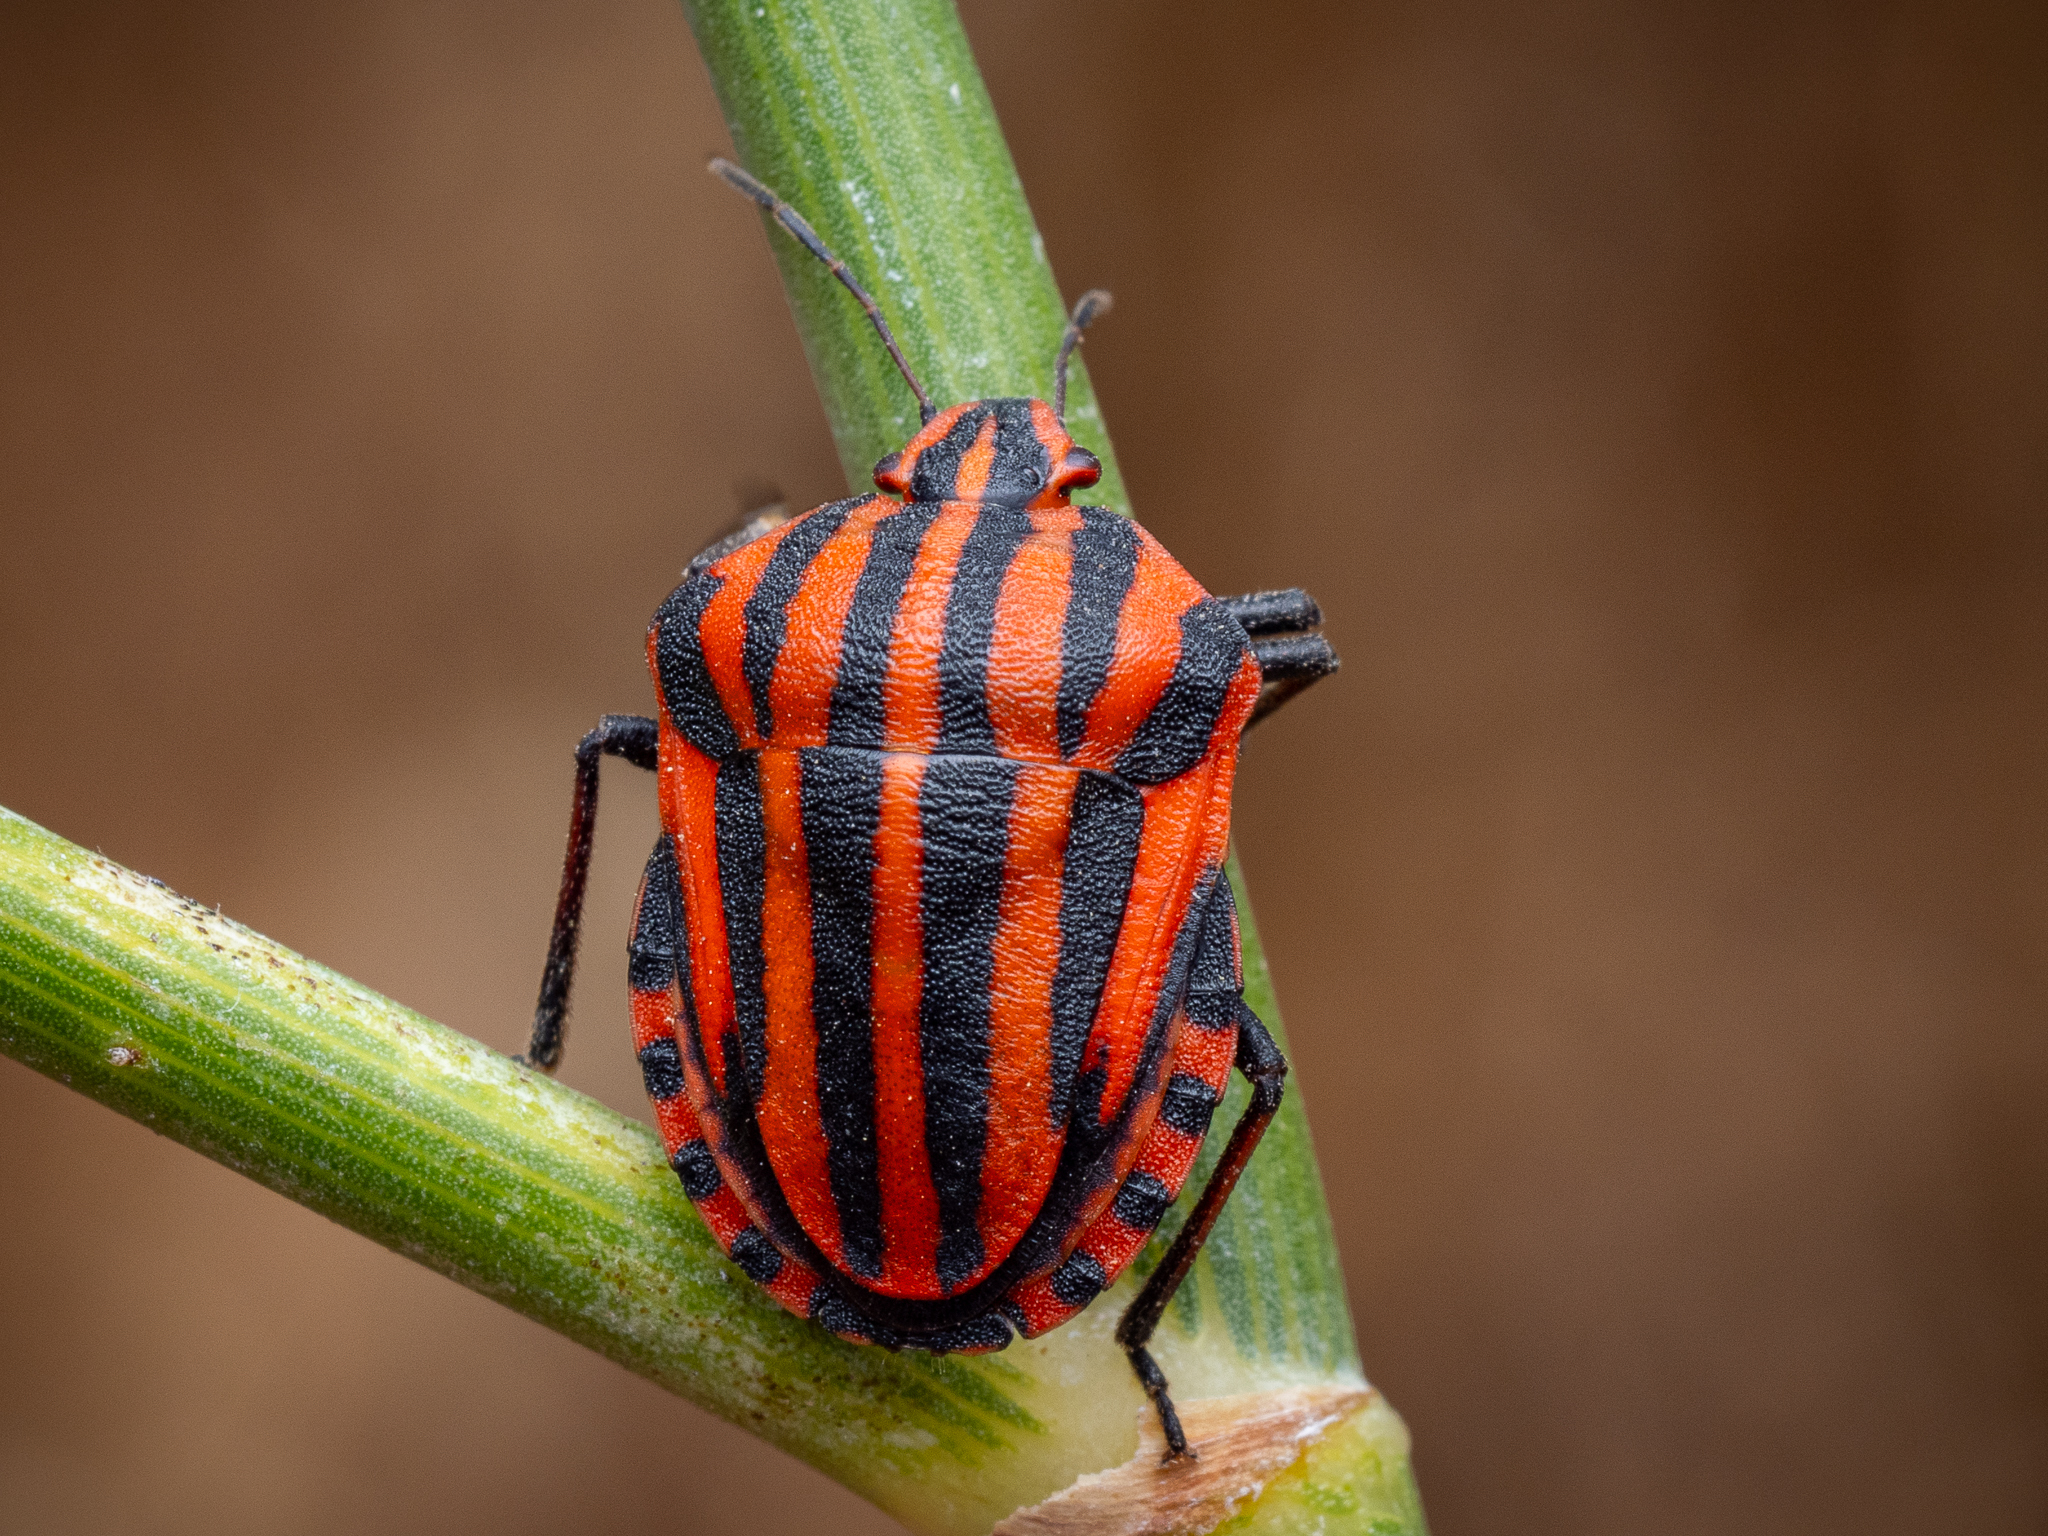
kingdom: Animalia
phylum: Arthropoda
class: Insecta
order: Hemiptera
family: Pentatomidae
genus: Graphosoma
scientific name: Graphosoma italicum
